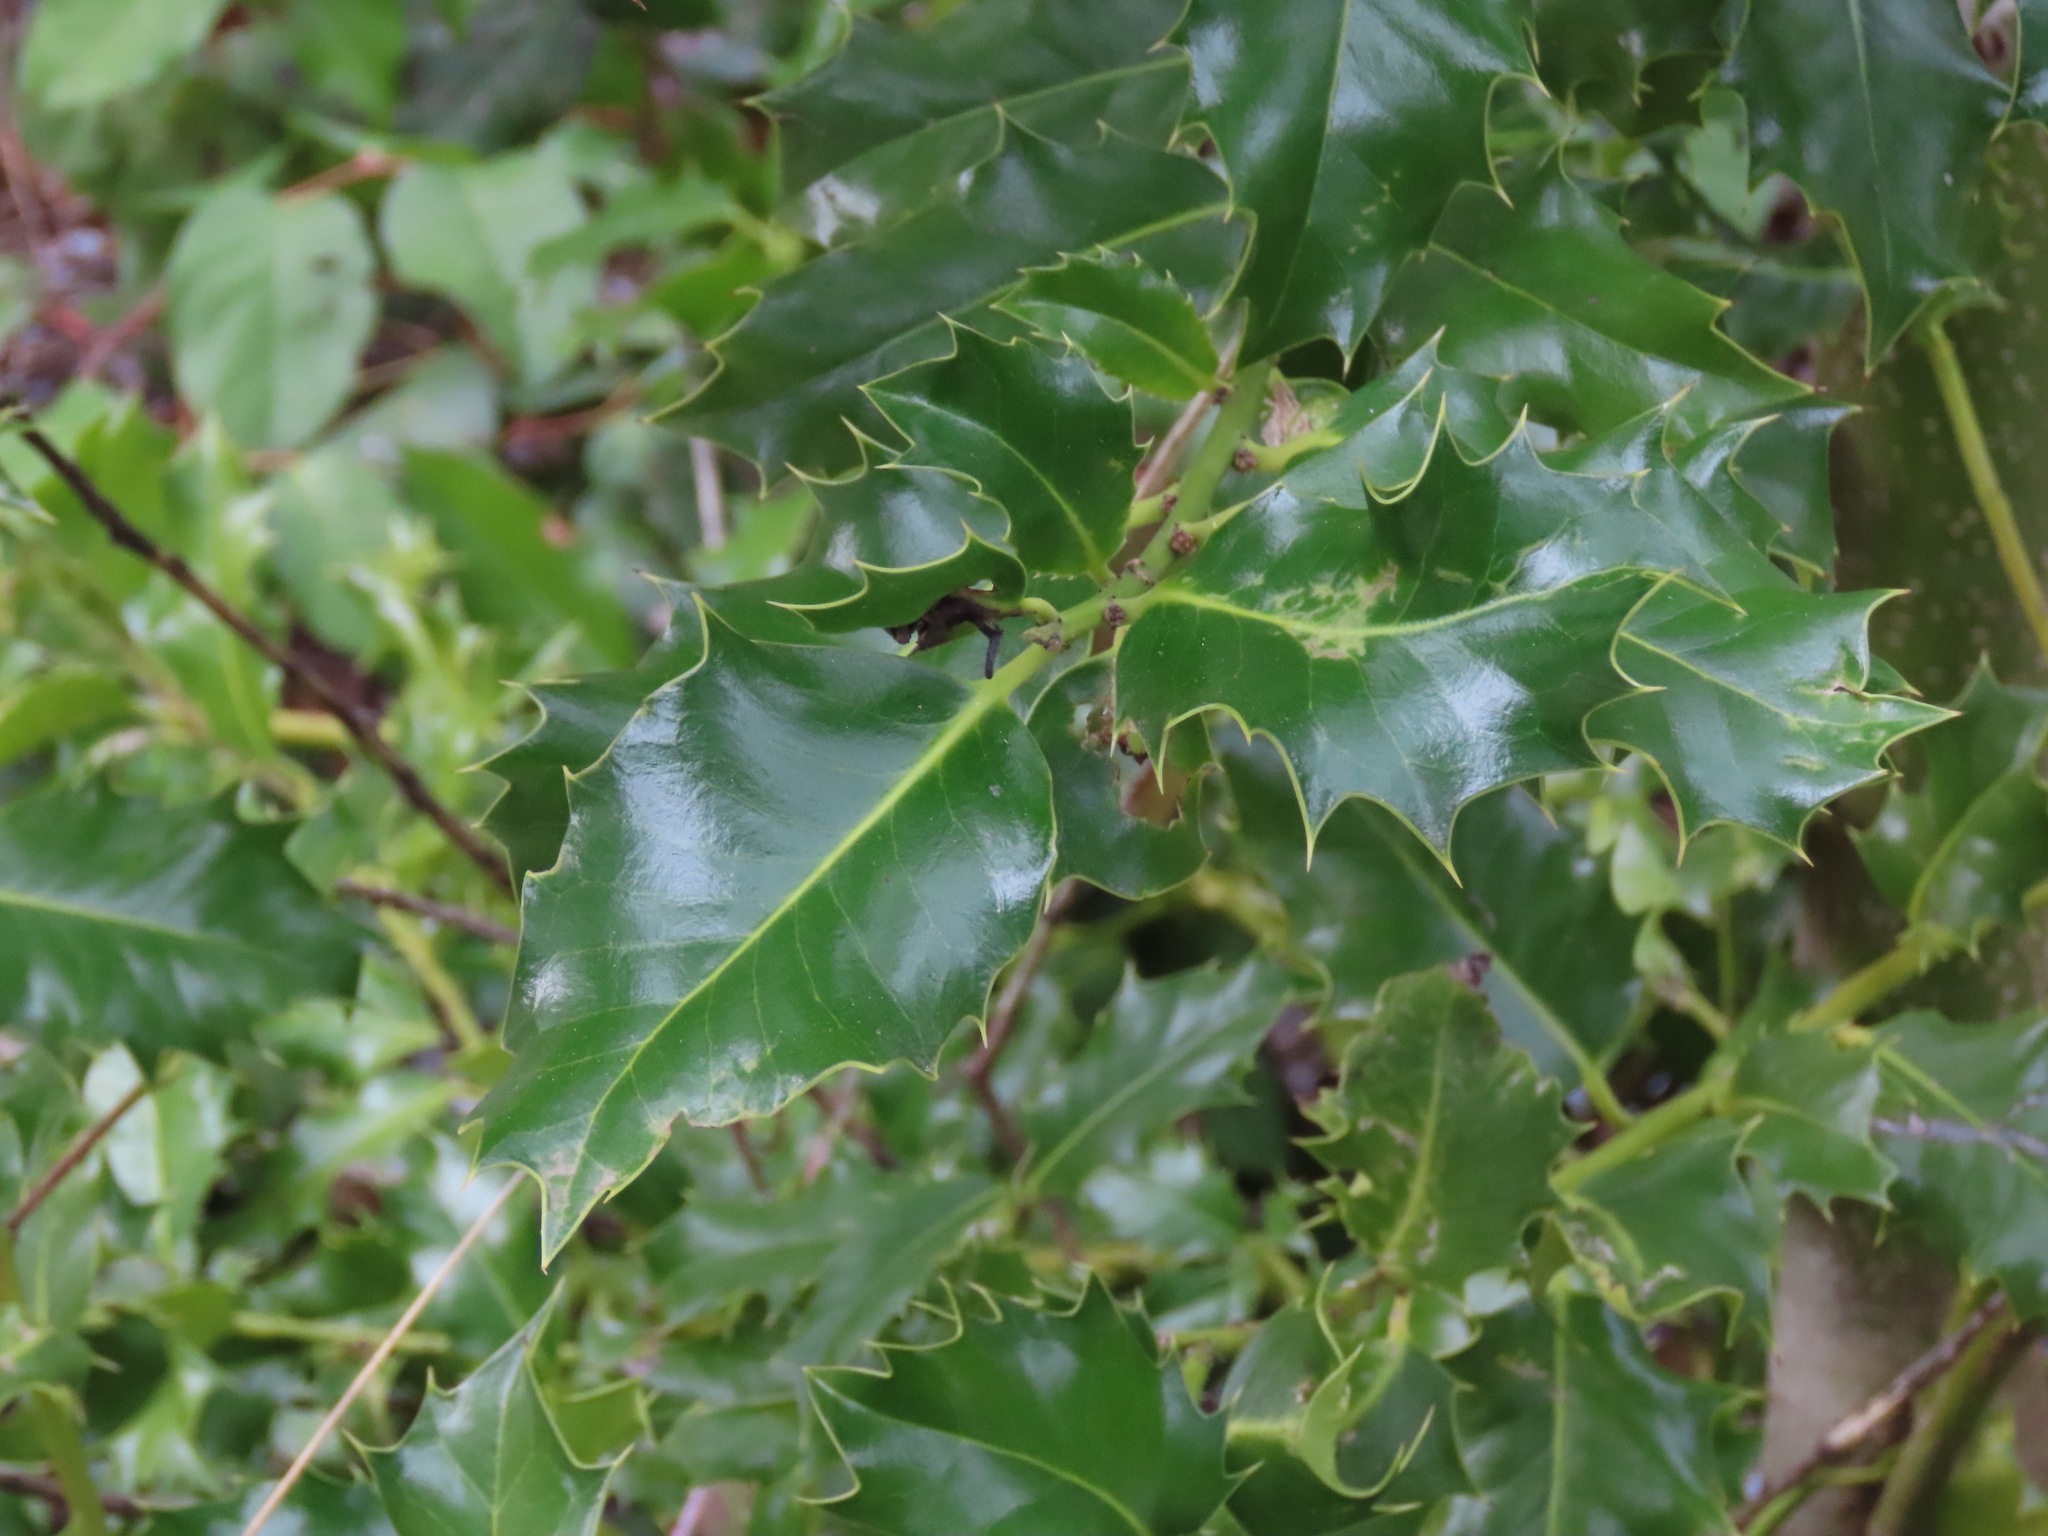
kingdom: Plantae
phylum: Tracheophyta
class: Magnoliopsida
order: Aquifoliales
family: Aquifoliaceae
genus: Ilex
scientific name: Ilex aquifolium
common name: English holly
